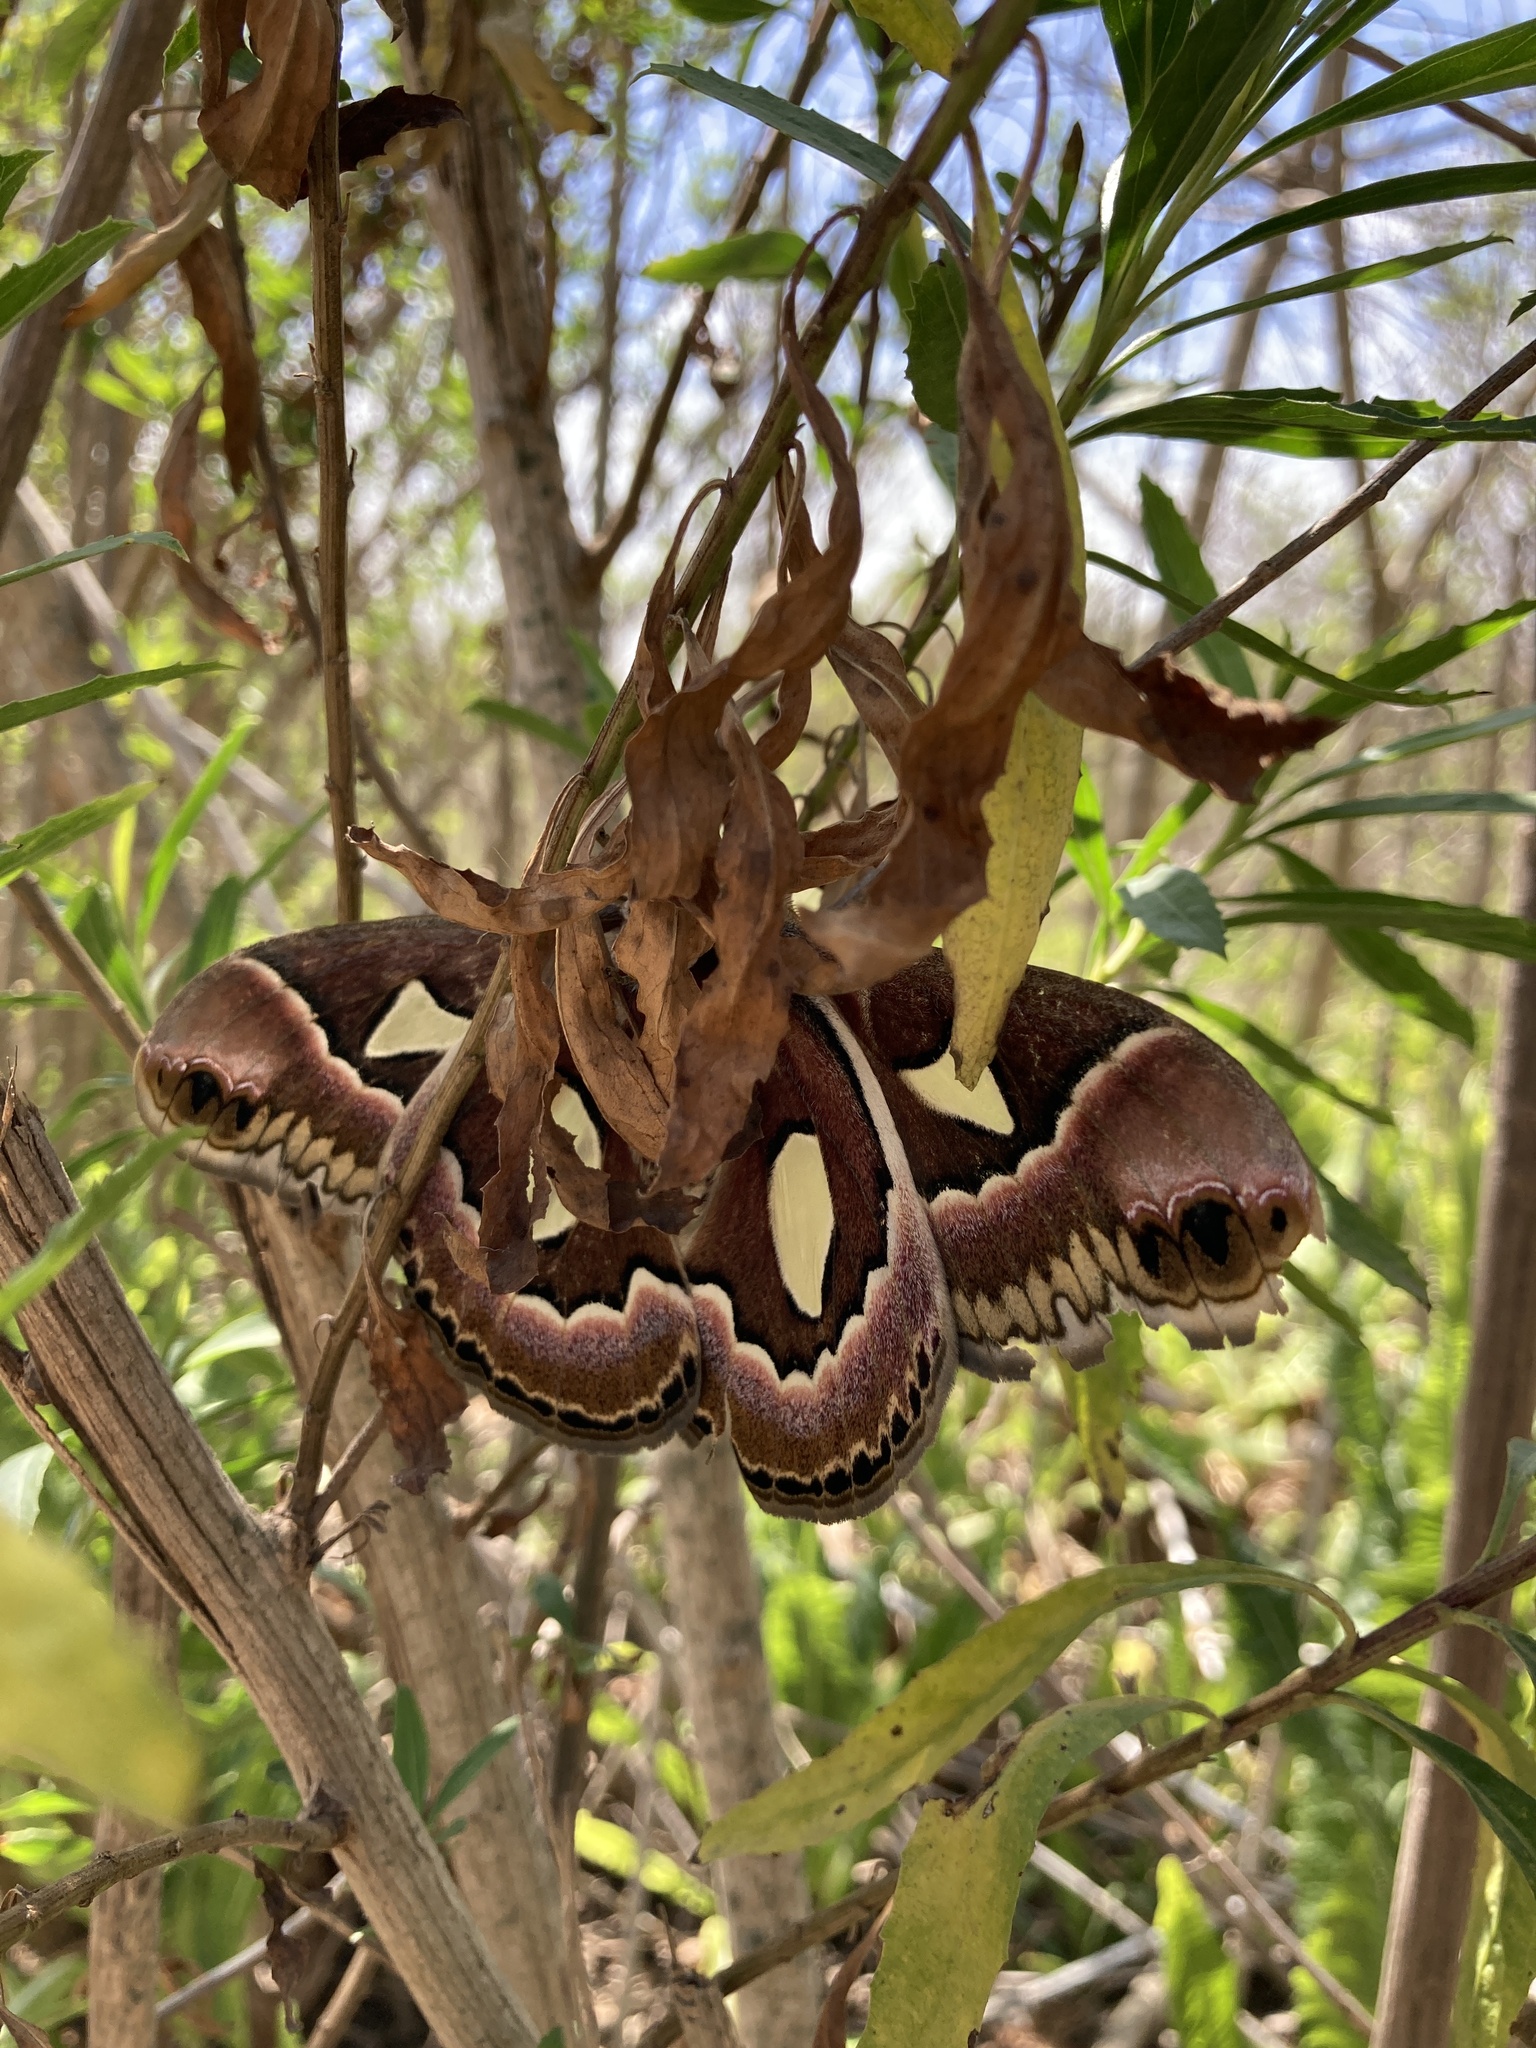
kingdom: Animalia
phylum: Arthropoda
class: Insecta
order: Lepidoptera
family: Saturniidae
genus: Rothschildia
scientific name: Rothschildia jacobaeae
